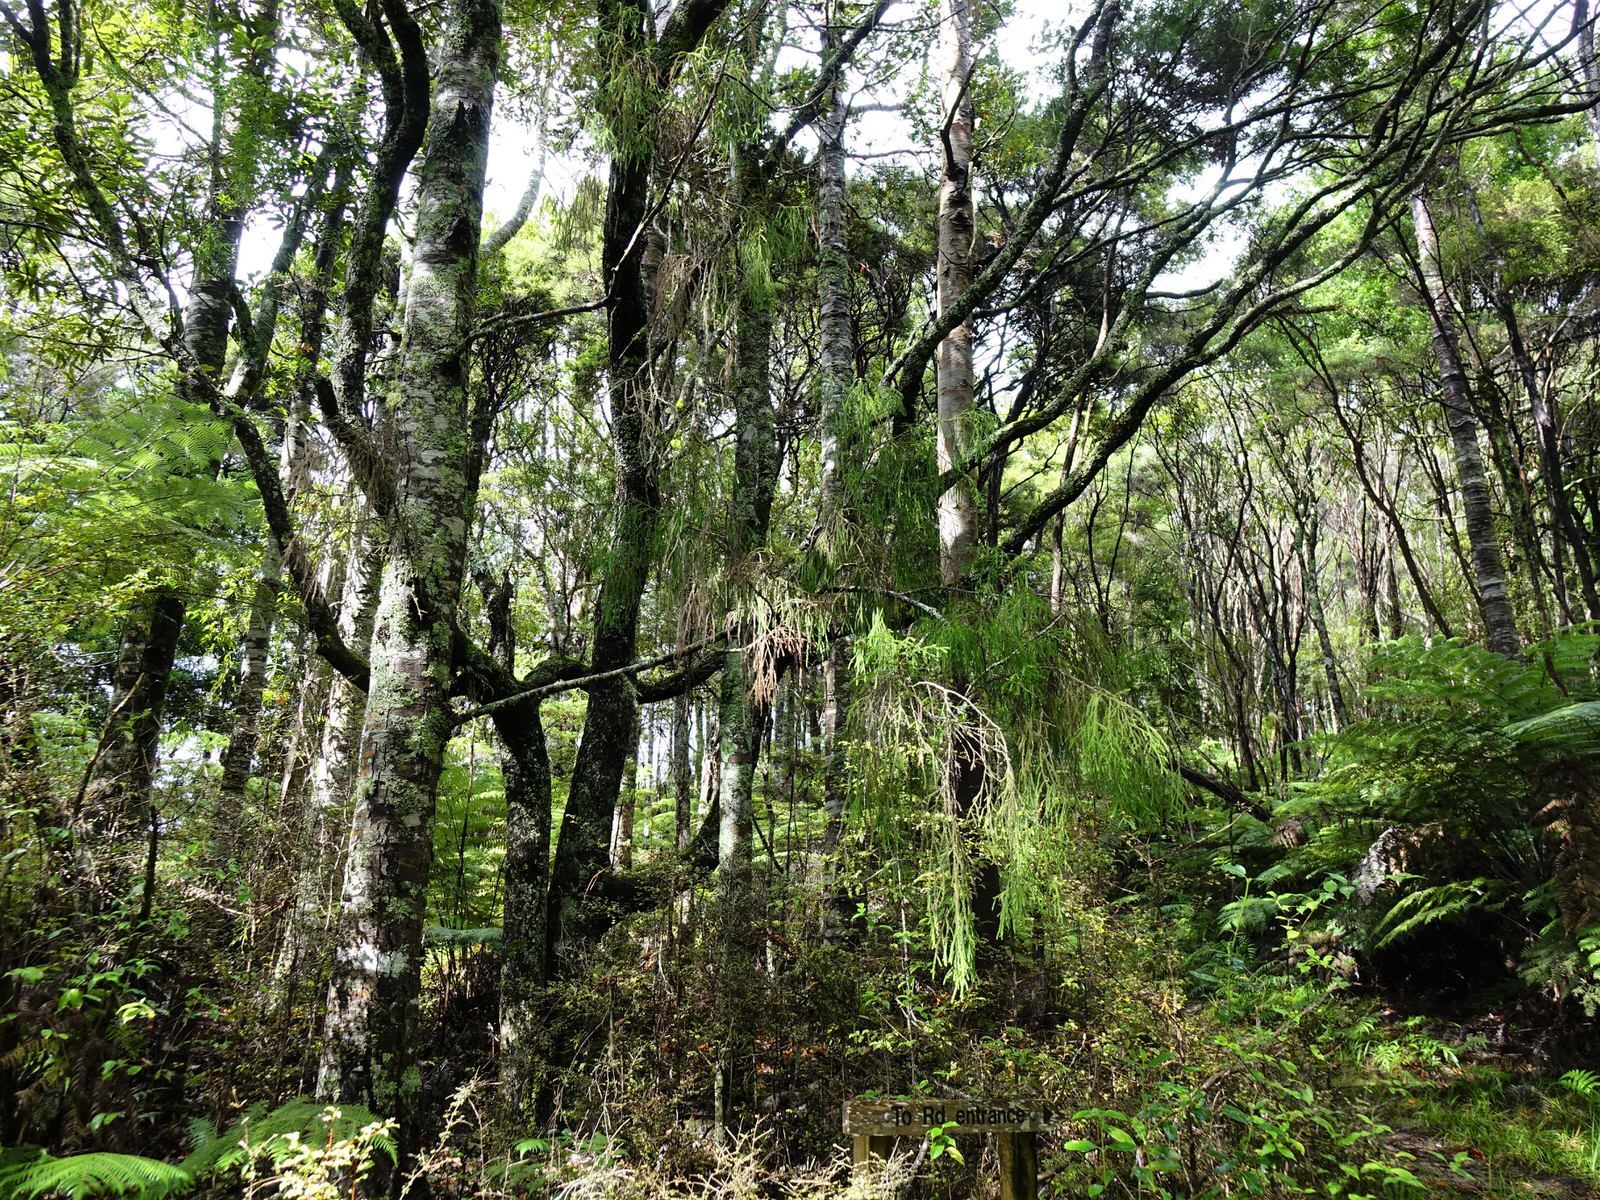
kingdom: Plantae
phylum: Tracheophyta
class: Magnoliopsida
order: Lamiales
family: Oleaceae
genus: Nestegis
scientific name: Nestegis montana
